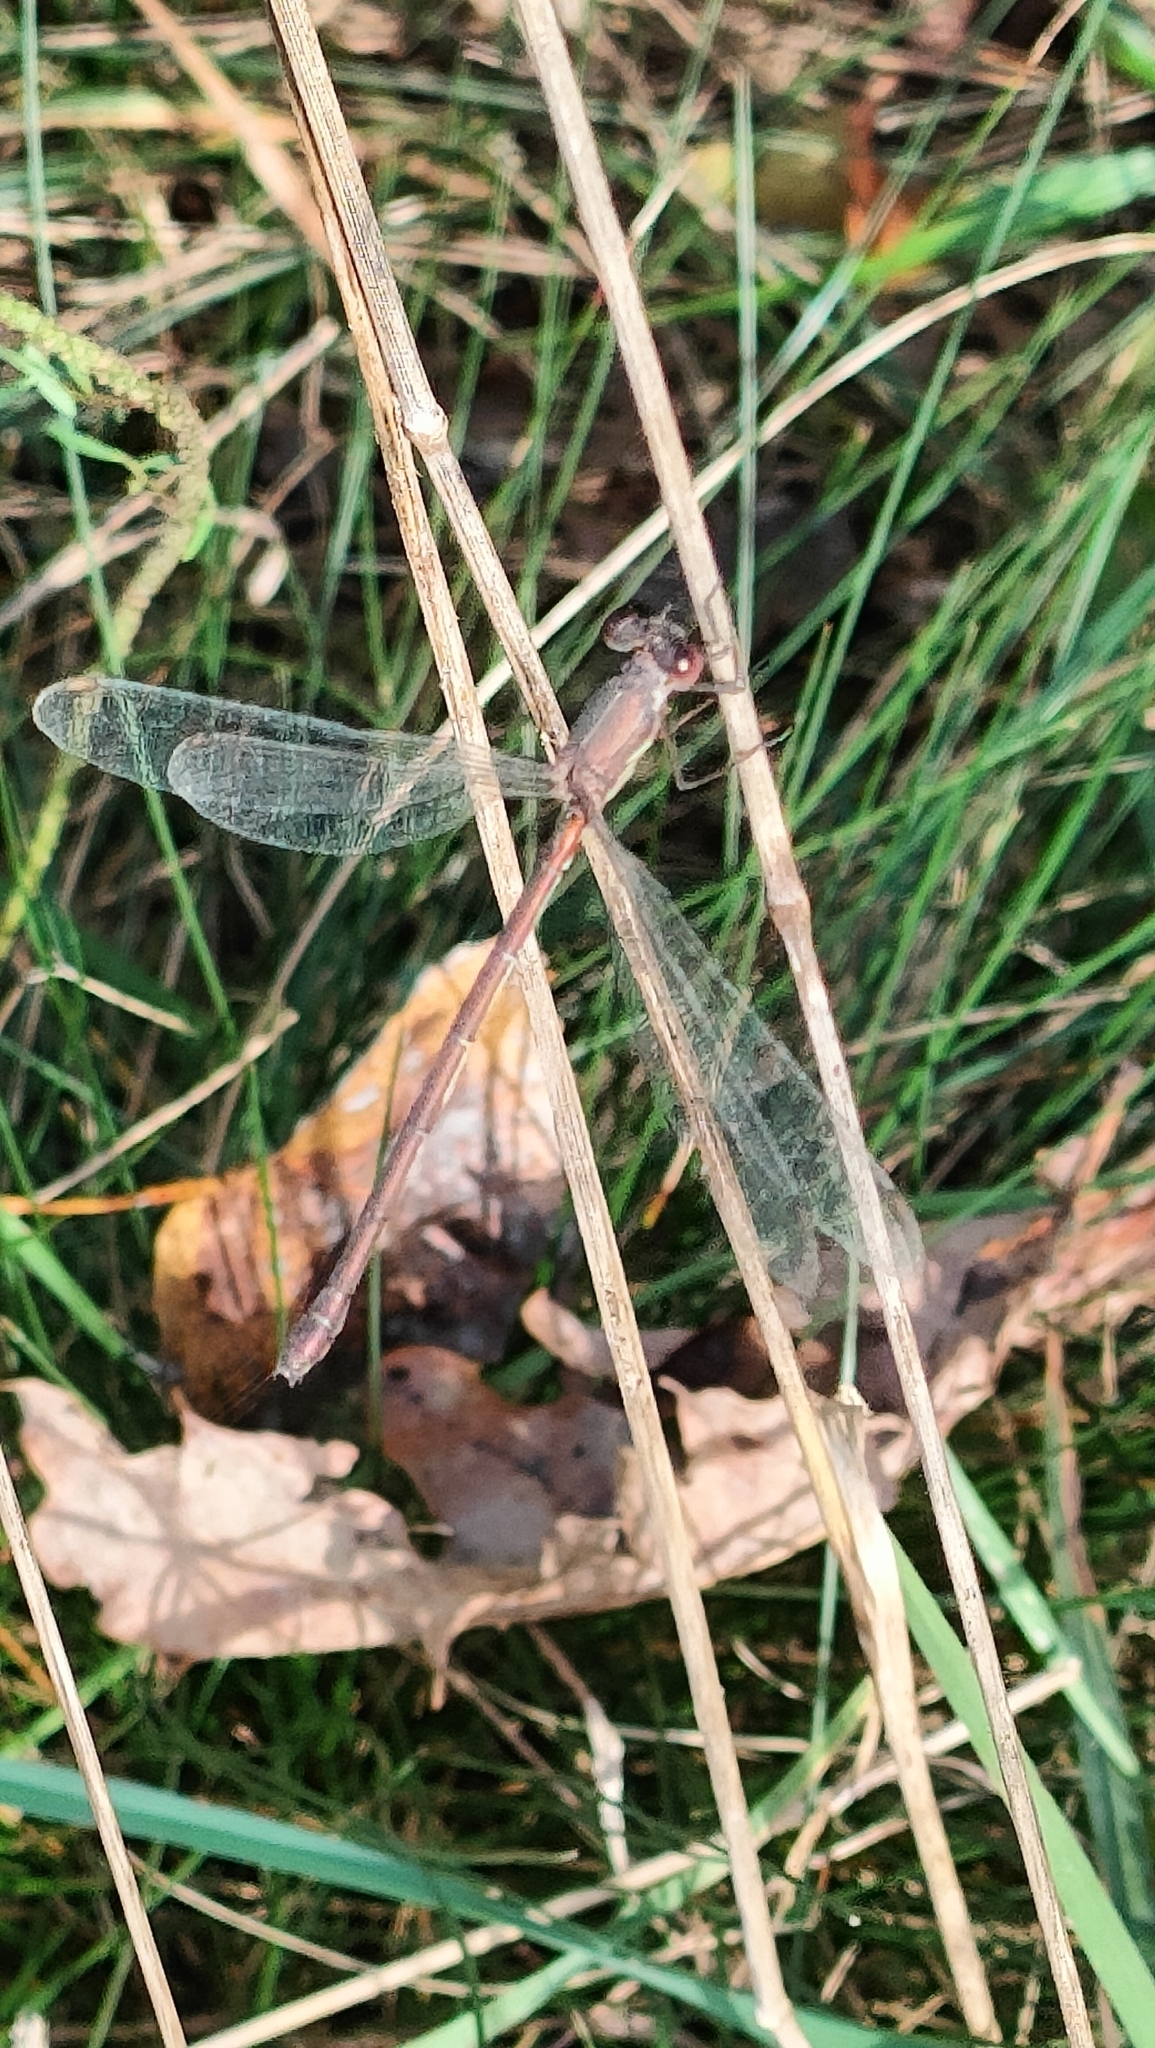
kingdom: Animalia
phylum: Arthropoda
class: Insecta
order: Odonata
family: Lestidae
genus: Chalcolestes
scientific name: Chalcolestes viridis
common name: Green emerald damselfly
